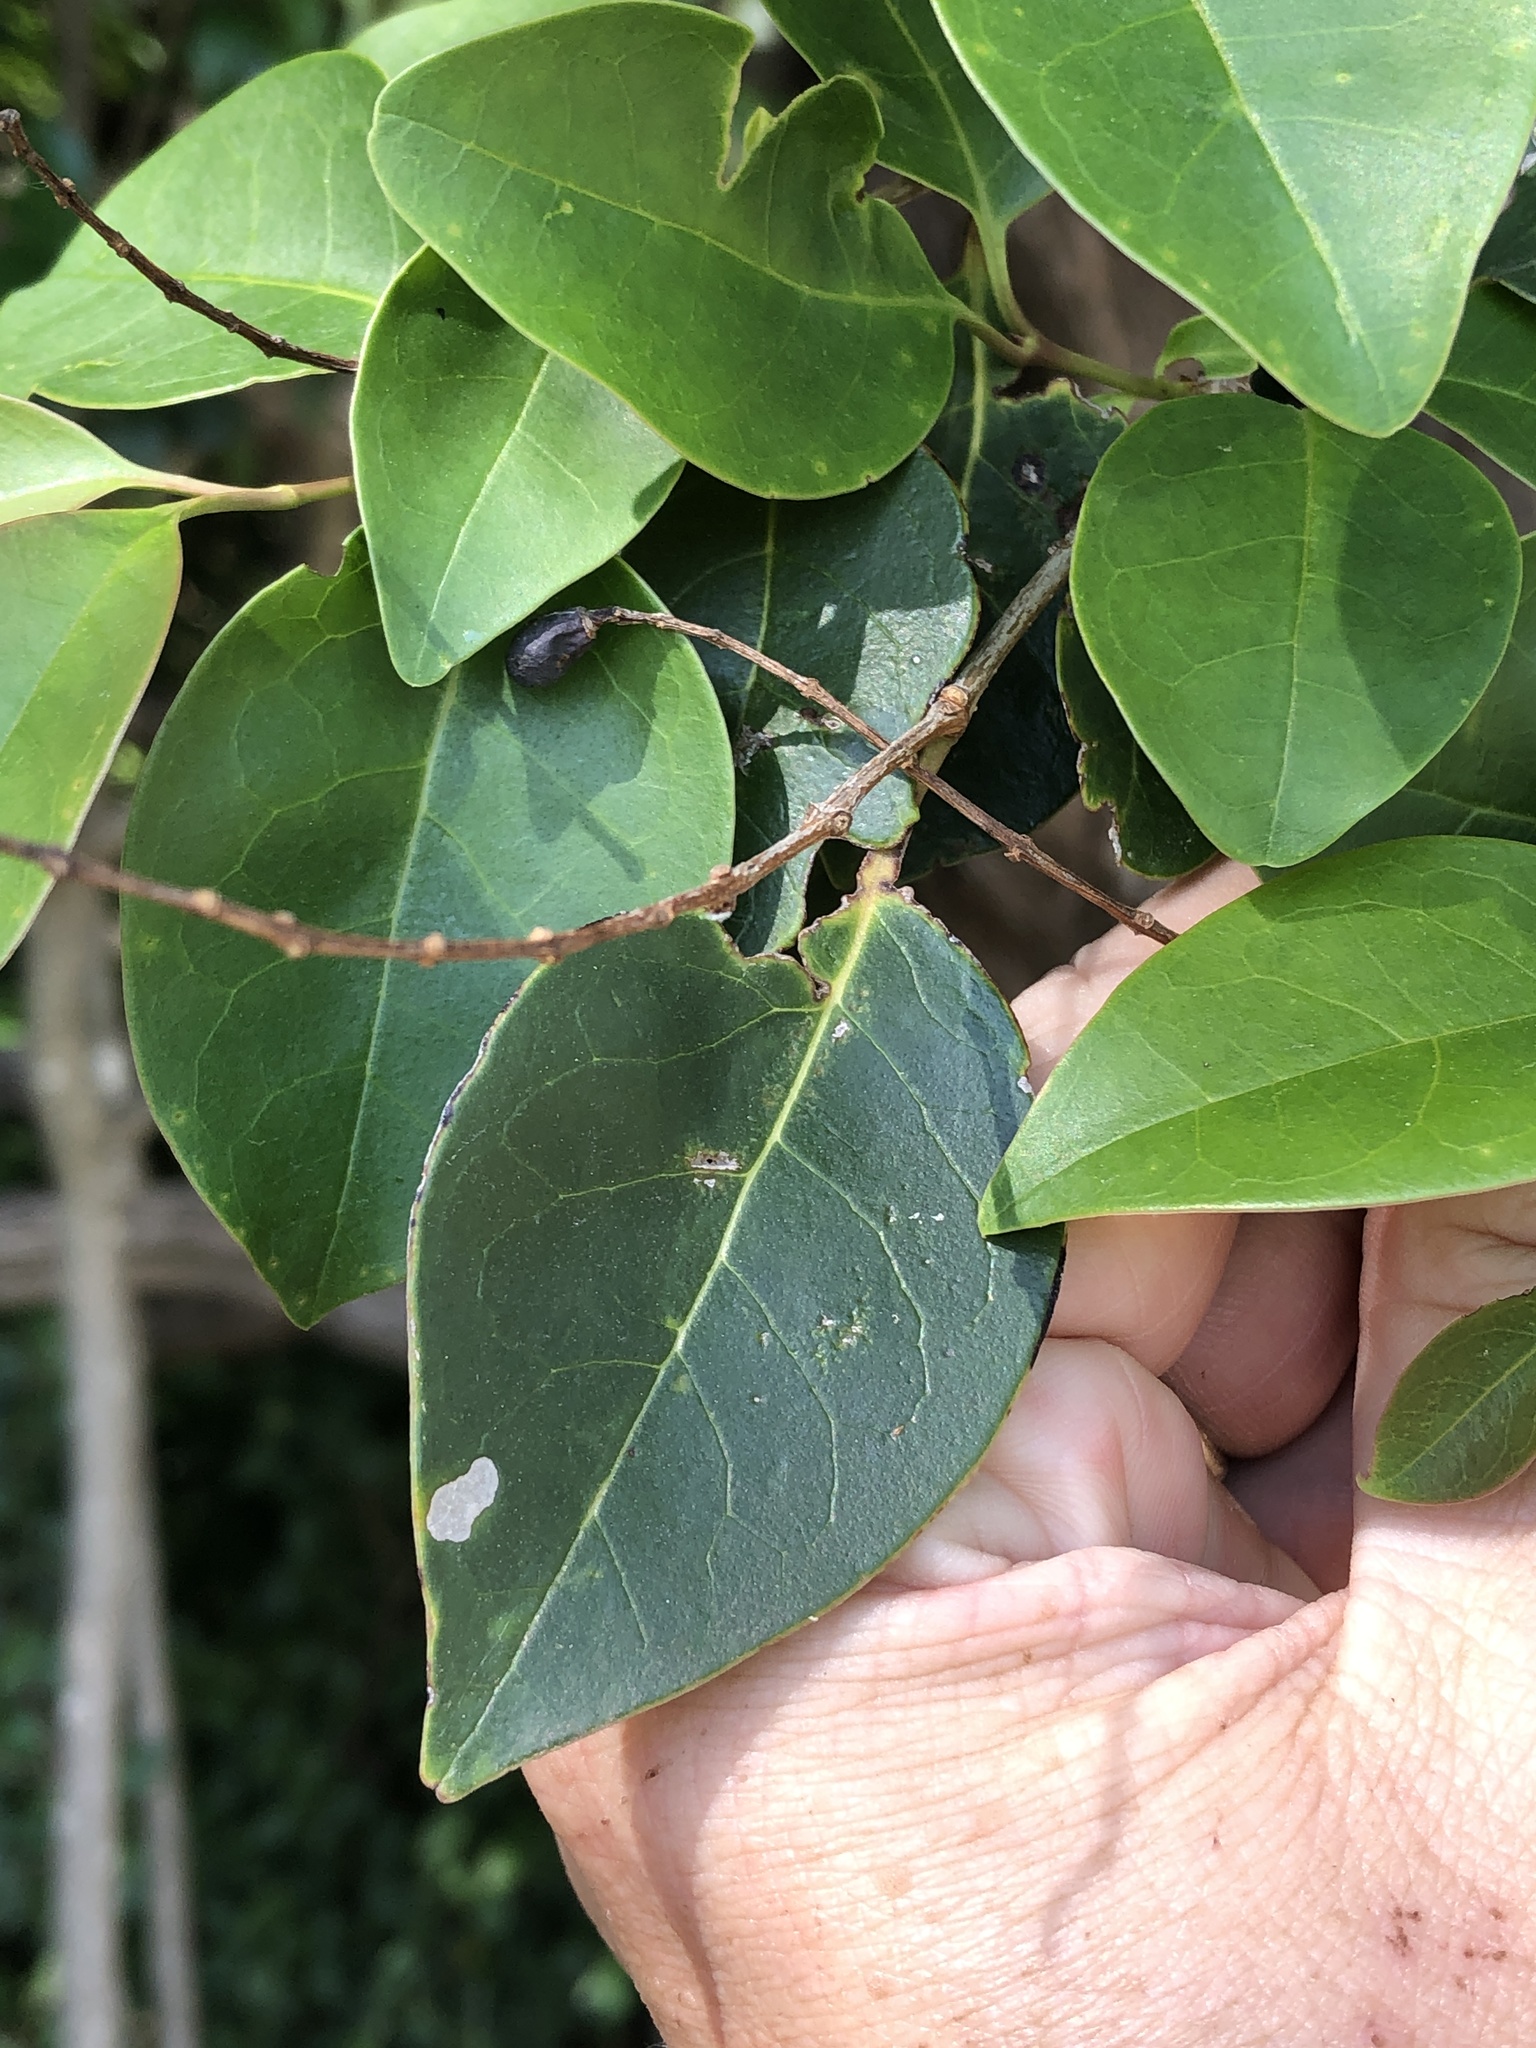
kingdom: Plantae
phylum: Tracheophyta
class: Magnoliopsida
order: Lamiales
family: Oleaceae
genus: Ligustrum
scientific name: Ligustrum lucidum
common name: Glossy privet
